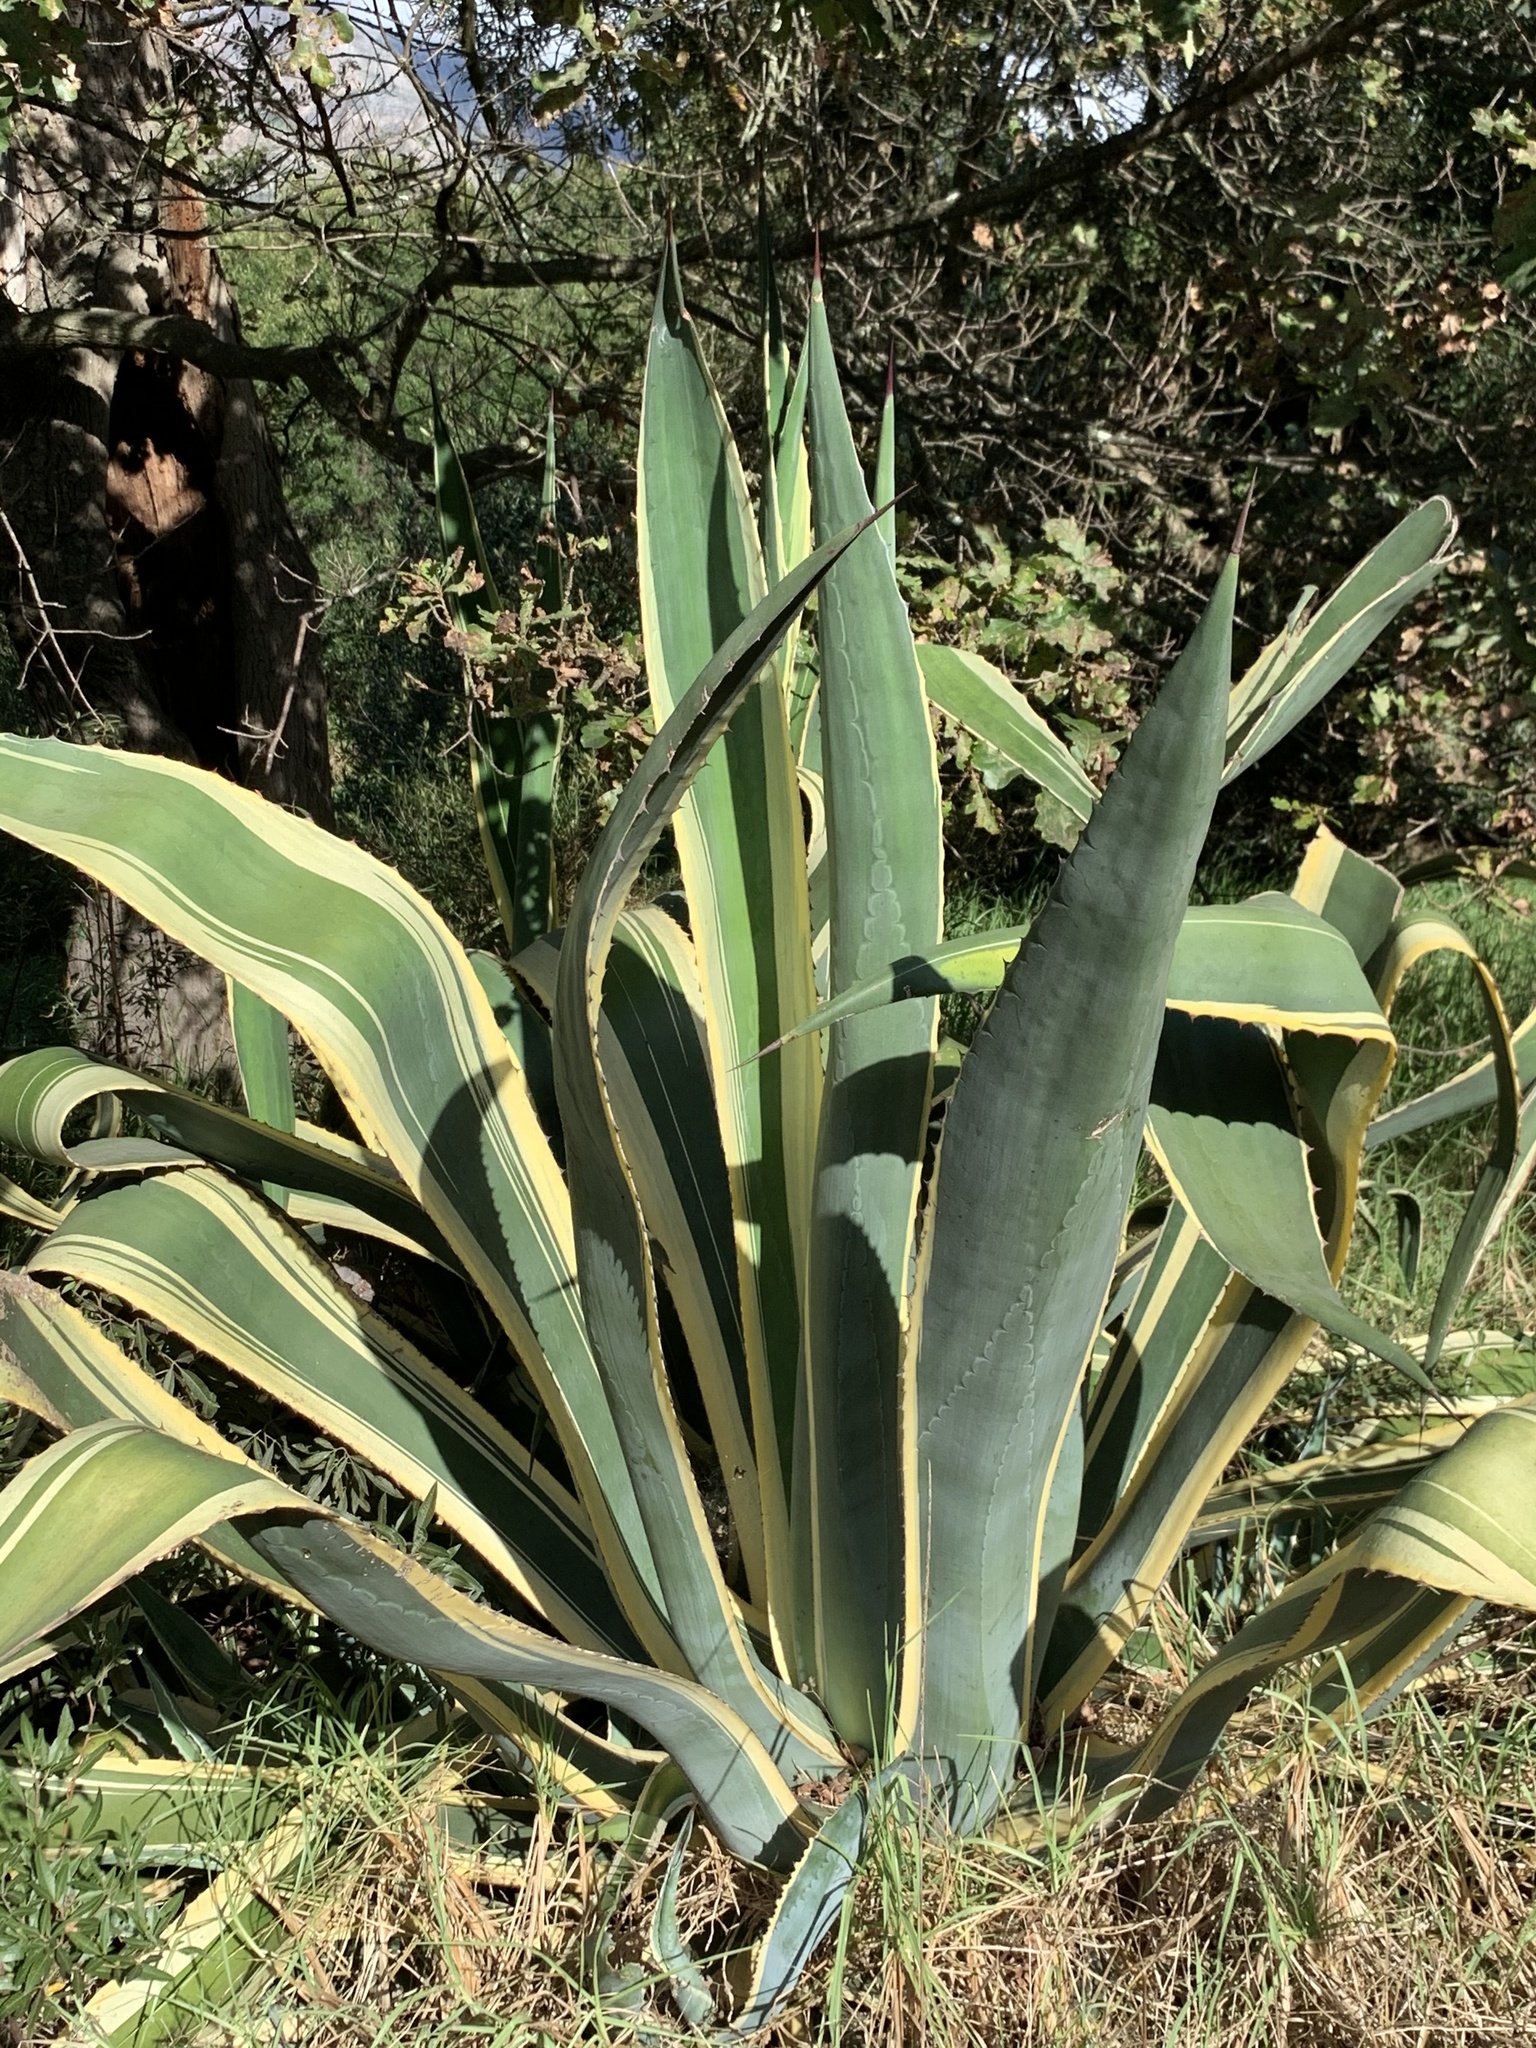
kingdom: Plantae
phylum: Tracheophyta
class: Liliopsida
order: Asparagales
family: Asparagaceae
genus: Agave
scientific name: Agave americana
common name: Centuryplant
